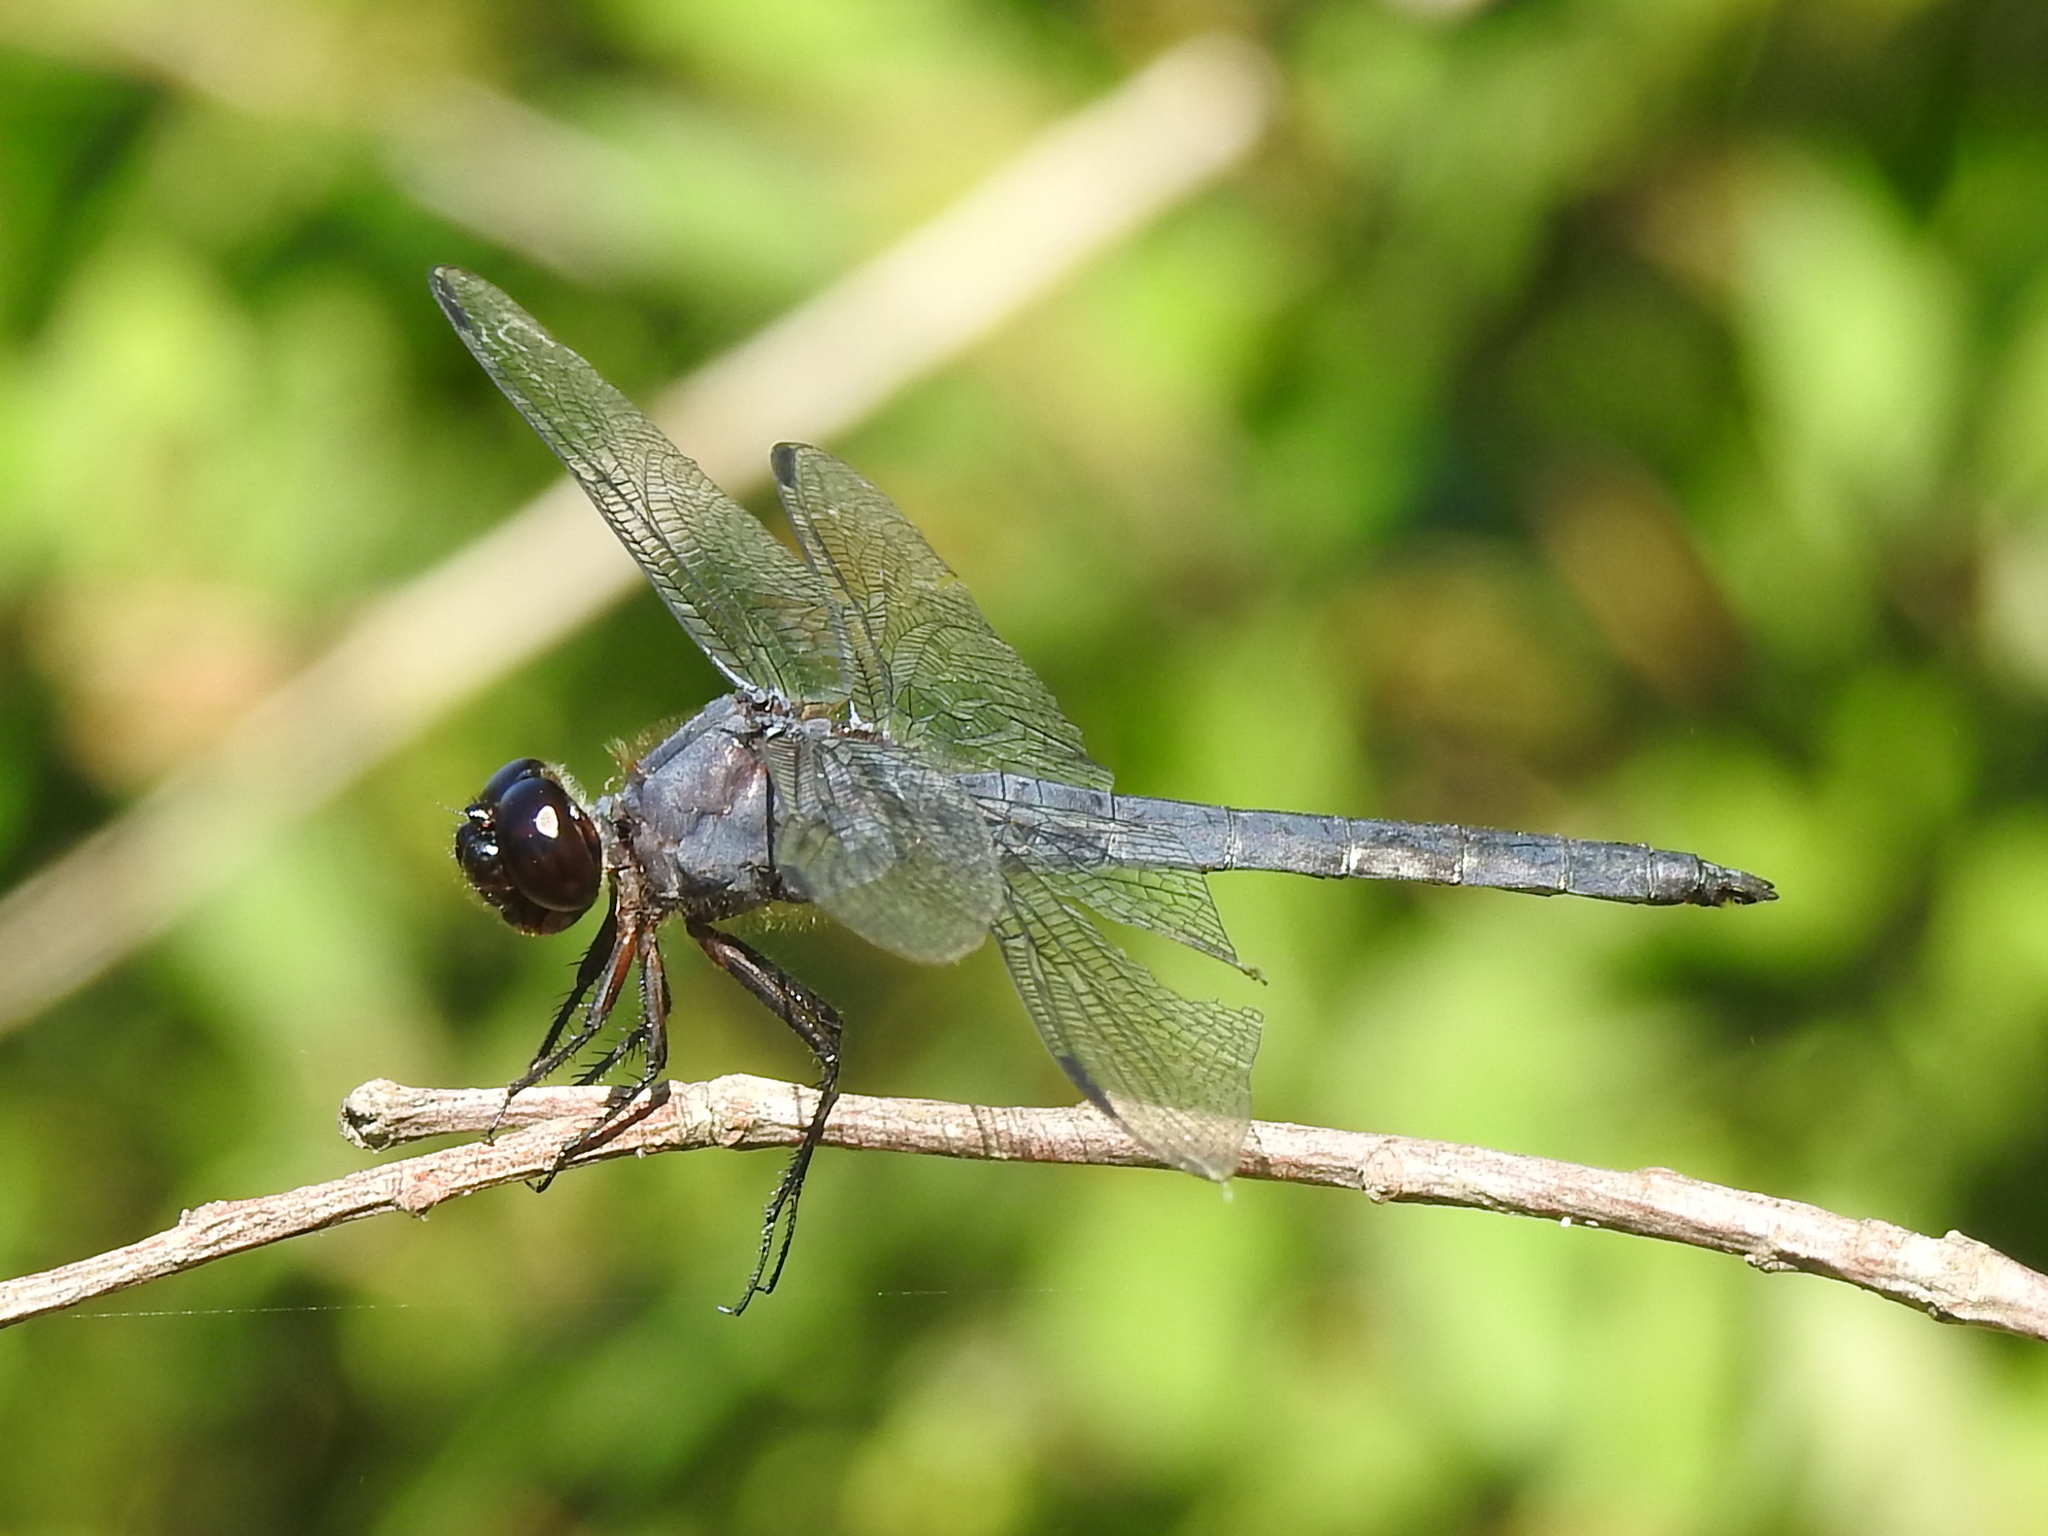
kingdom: Animalia
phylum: Arthropoda
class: Insecta
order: Odonata
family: Libellulidae
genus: Libellula
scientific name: Libellula incesta
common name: Slaty skimmer
